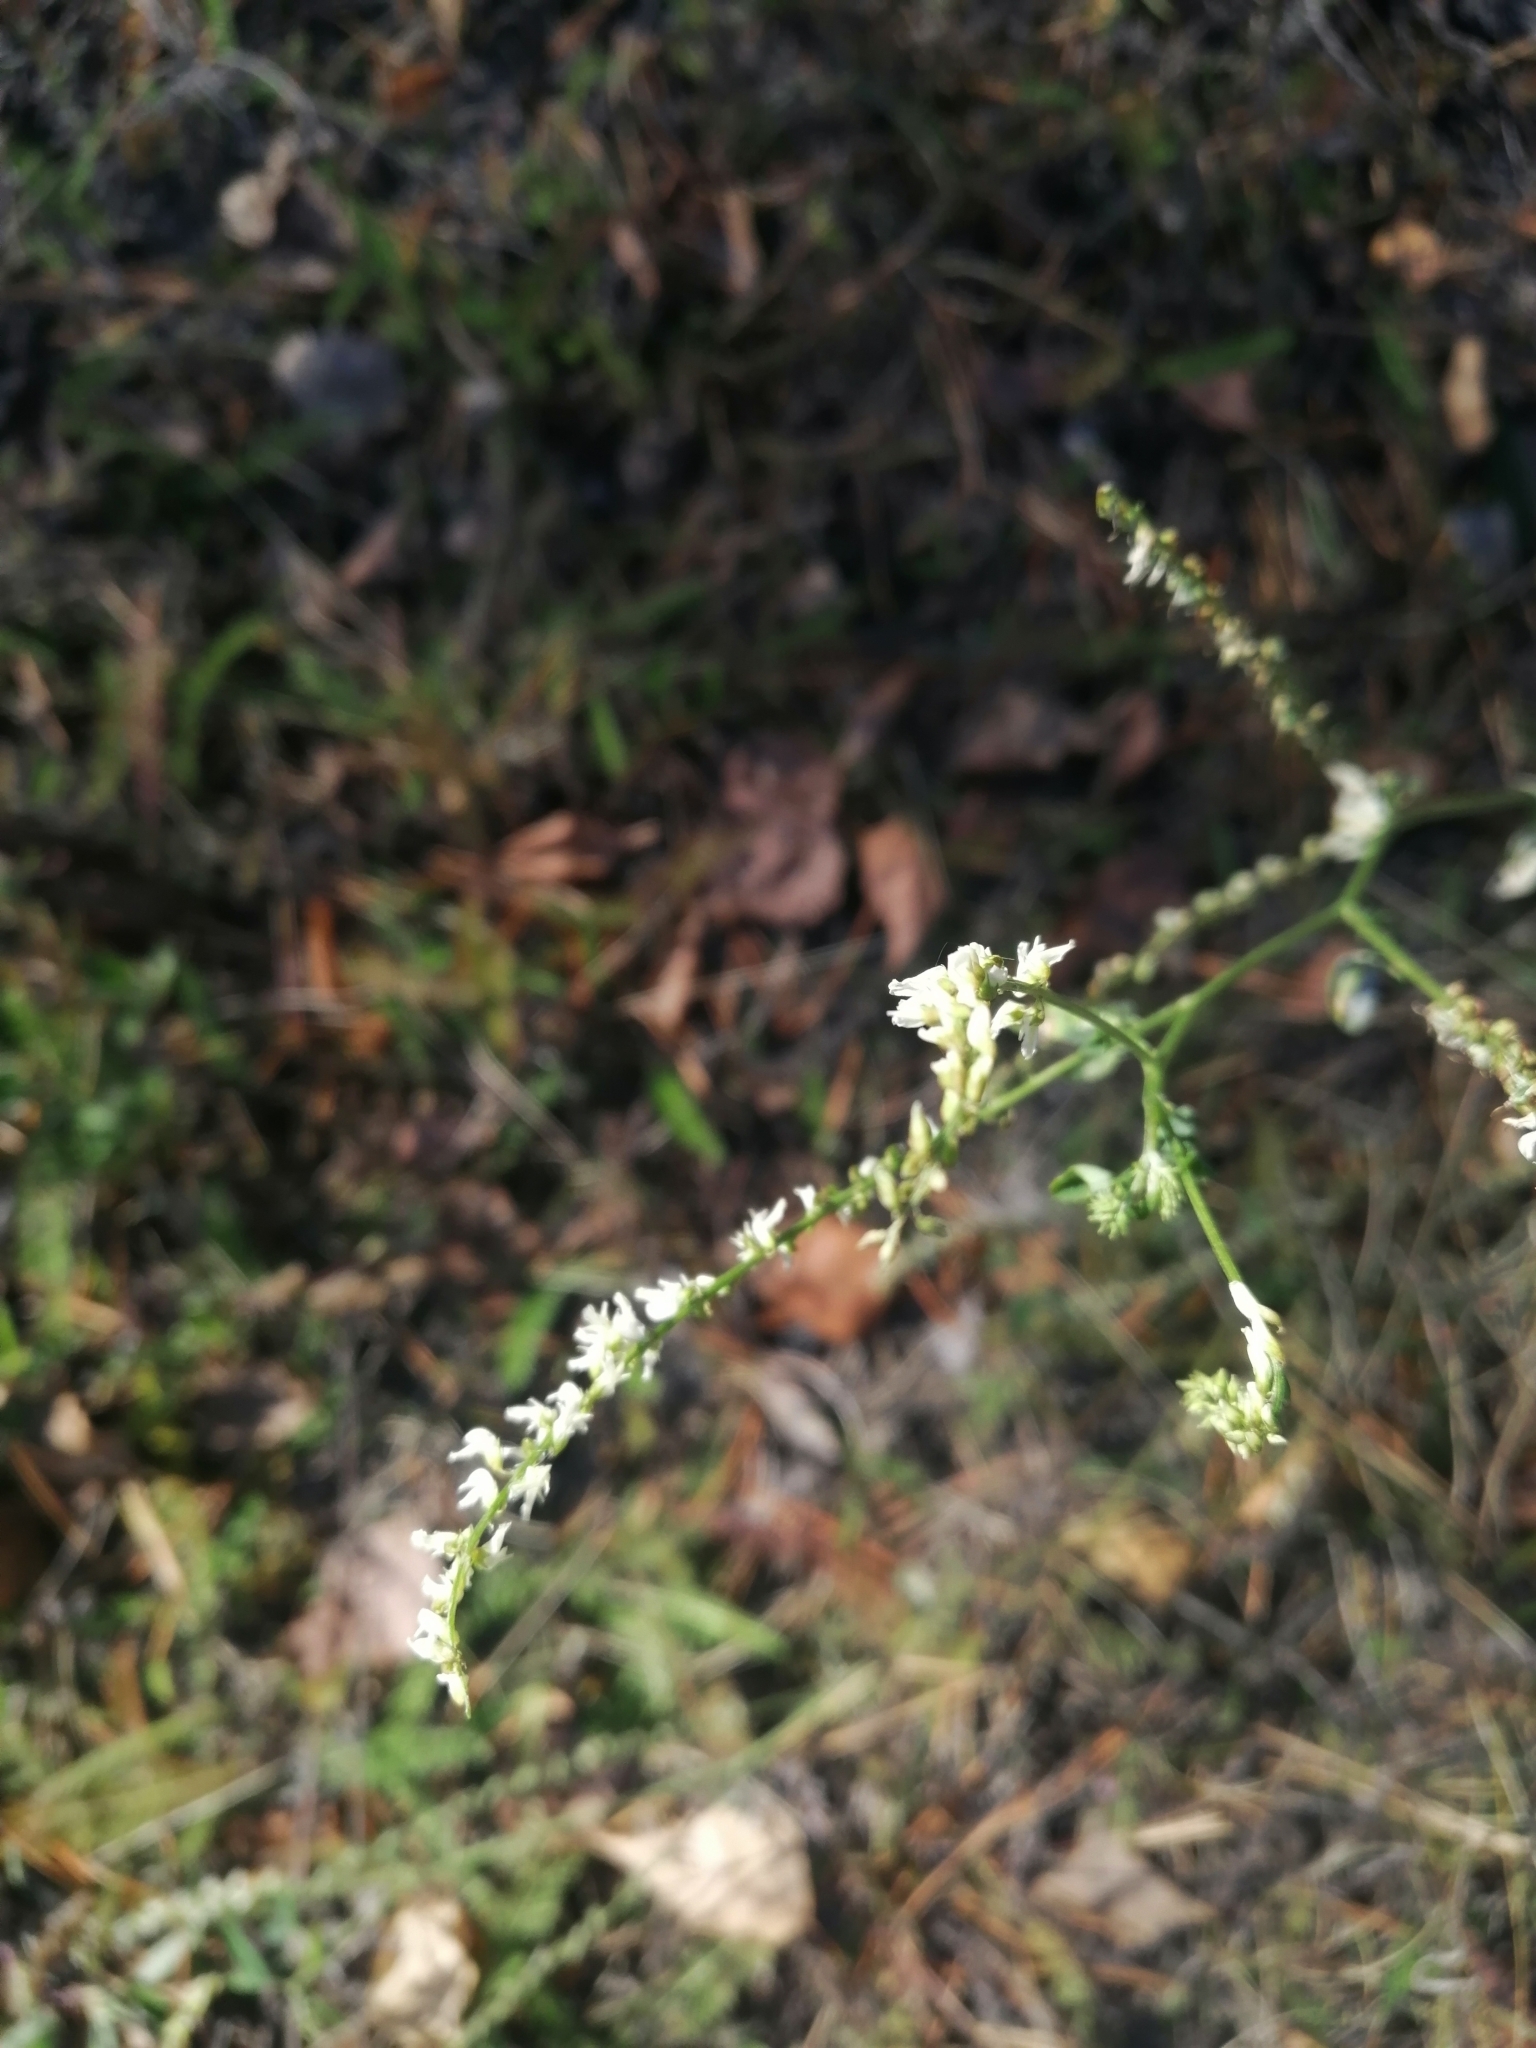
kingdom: Plantae
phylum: Tracheophyta
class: Magnoliopsida
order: Fabales
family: Fabaceae
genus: Melilotus
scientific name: Melilotus albus
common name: White melilot
